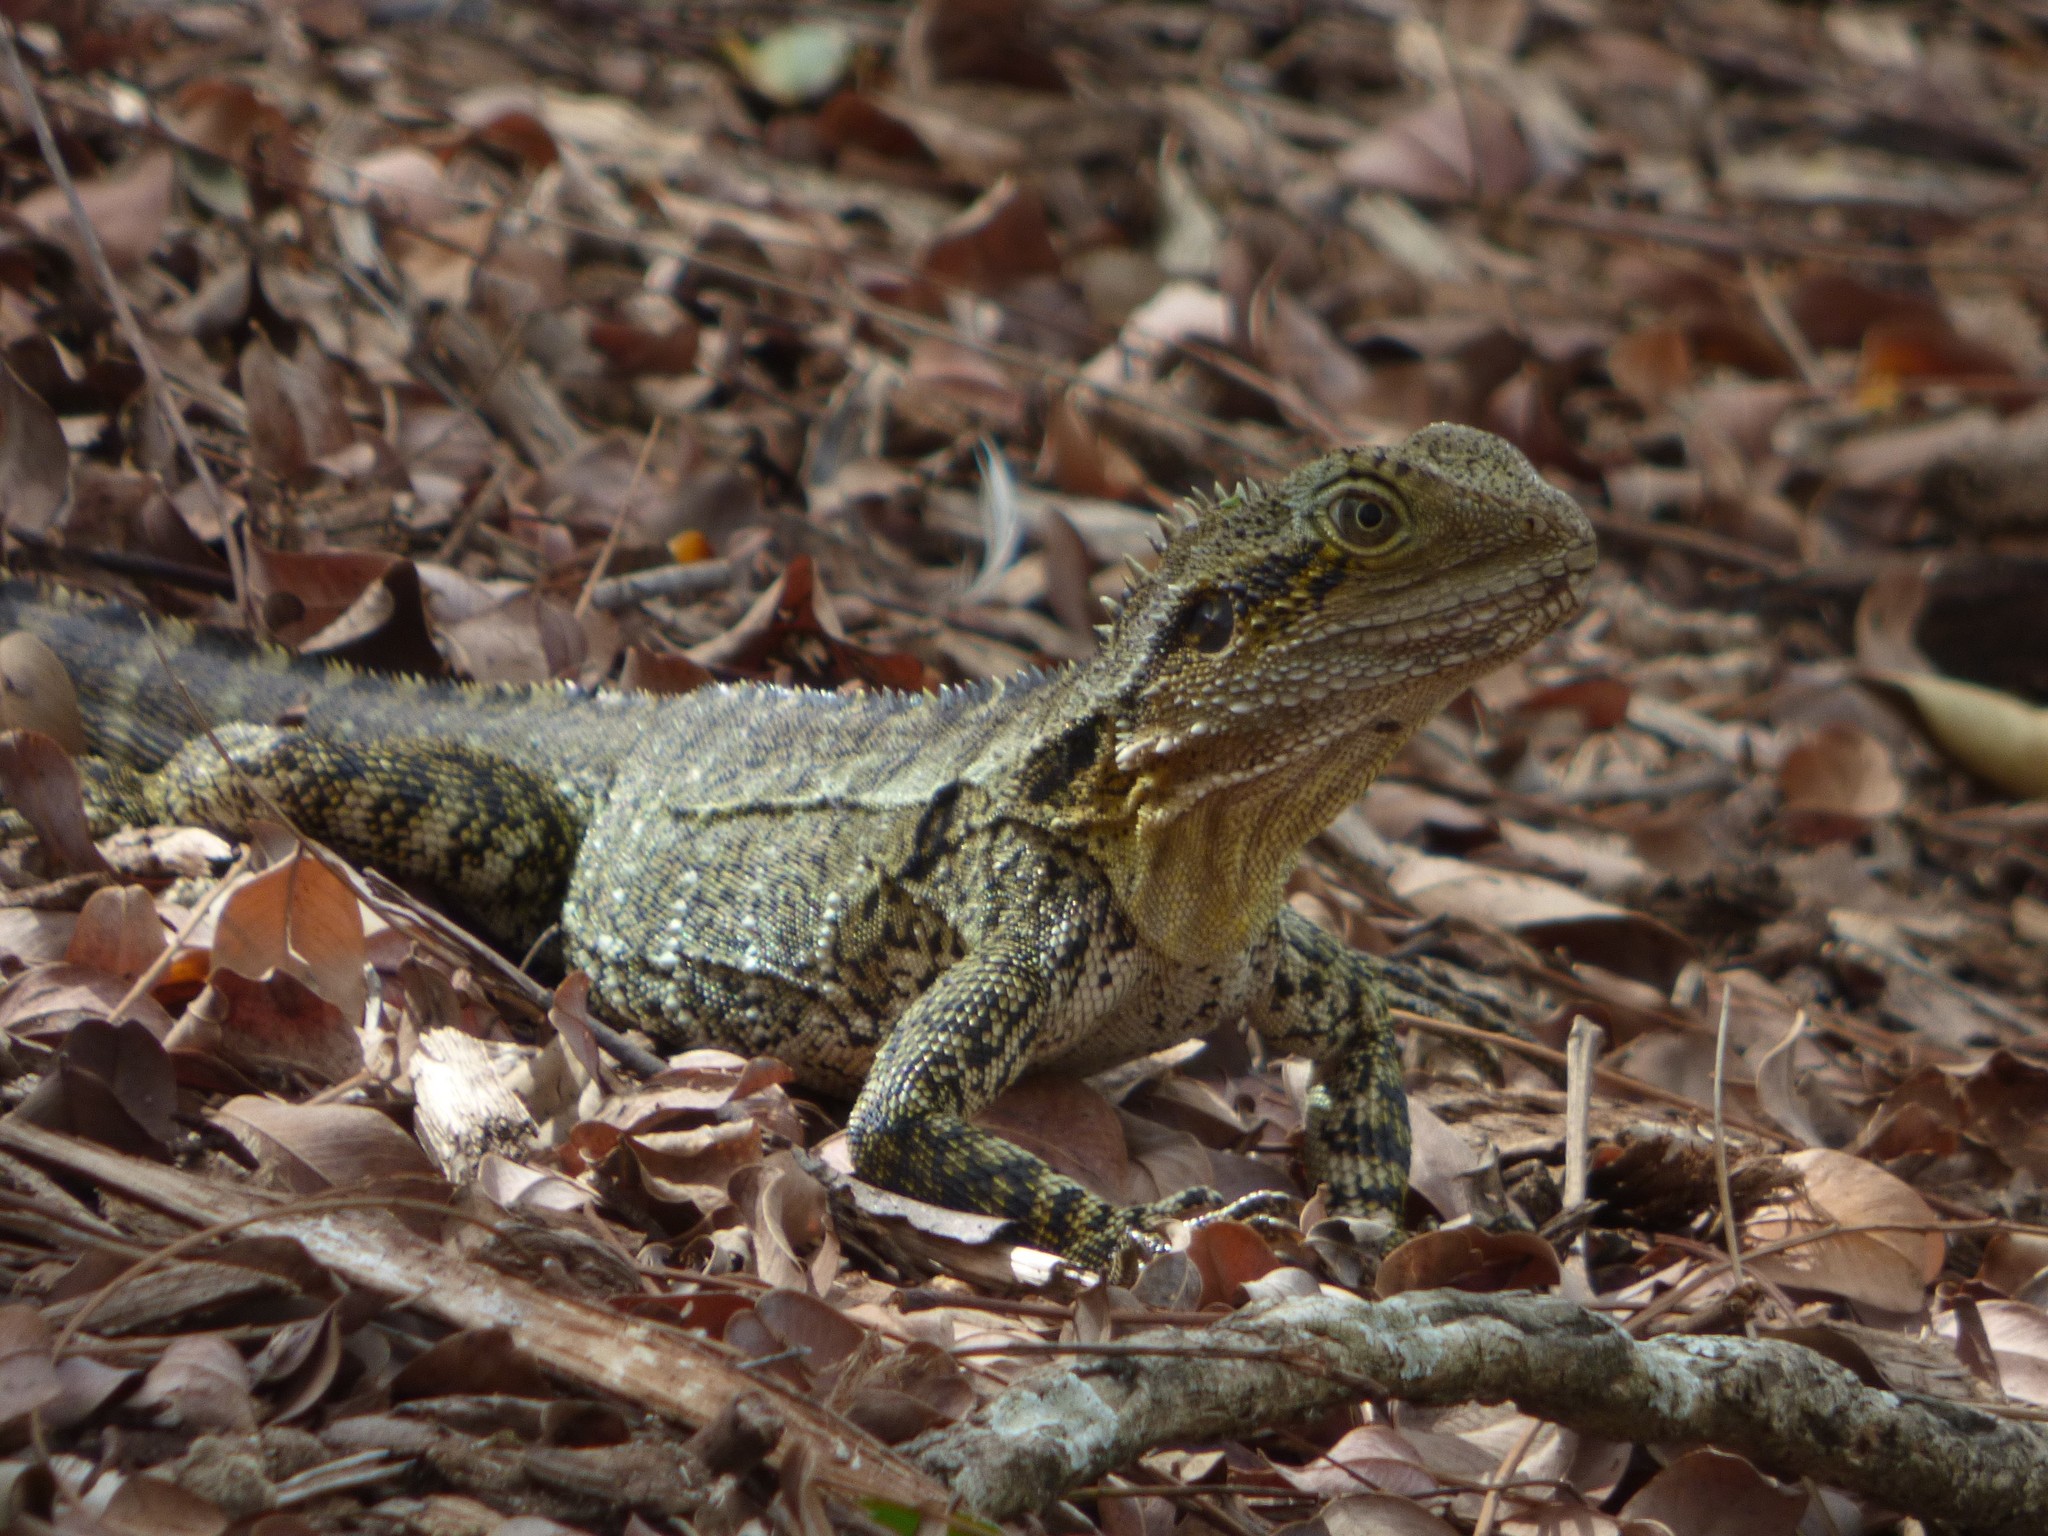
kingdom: Animalia
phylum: Chordata
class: Squamata
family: Agamidae
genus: Intellagama
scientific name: Intellagama lesueurii
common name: Eastern water dragon
